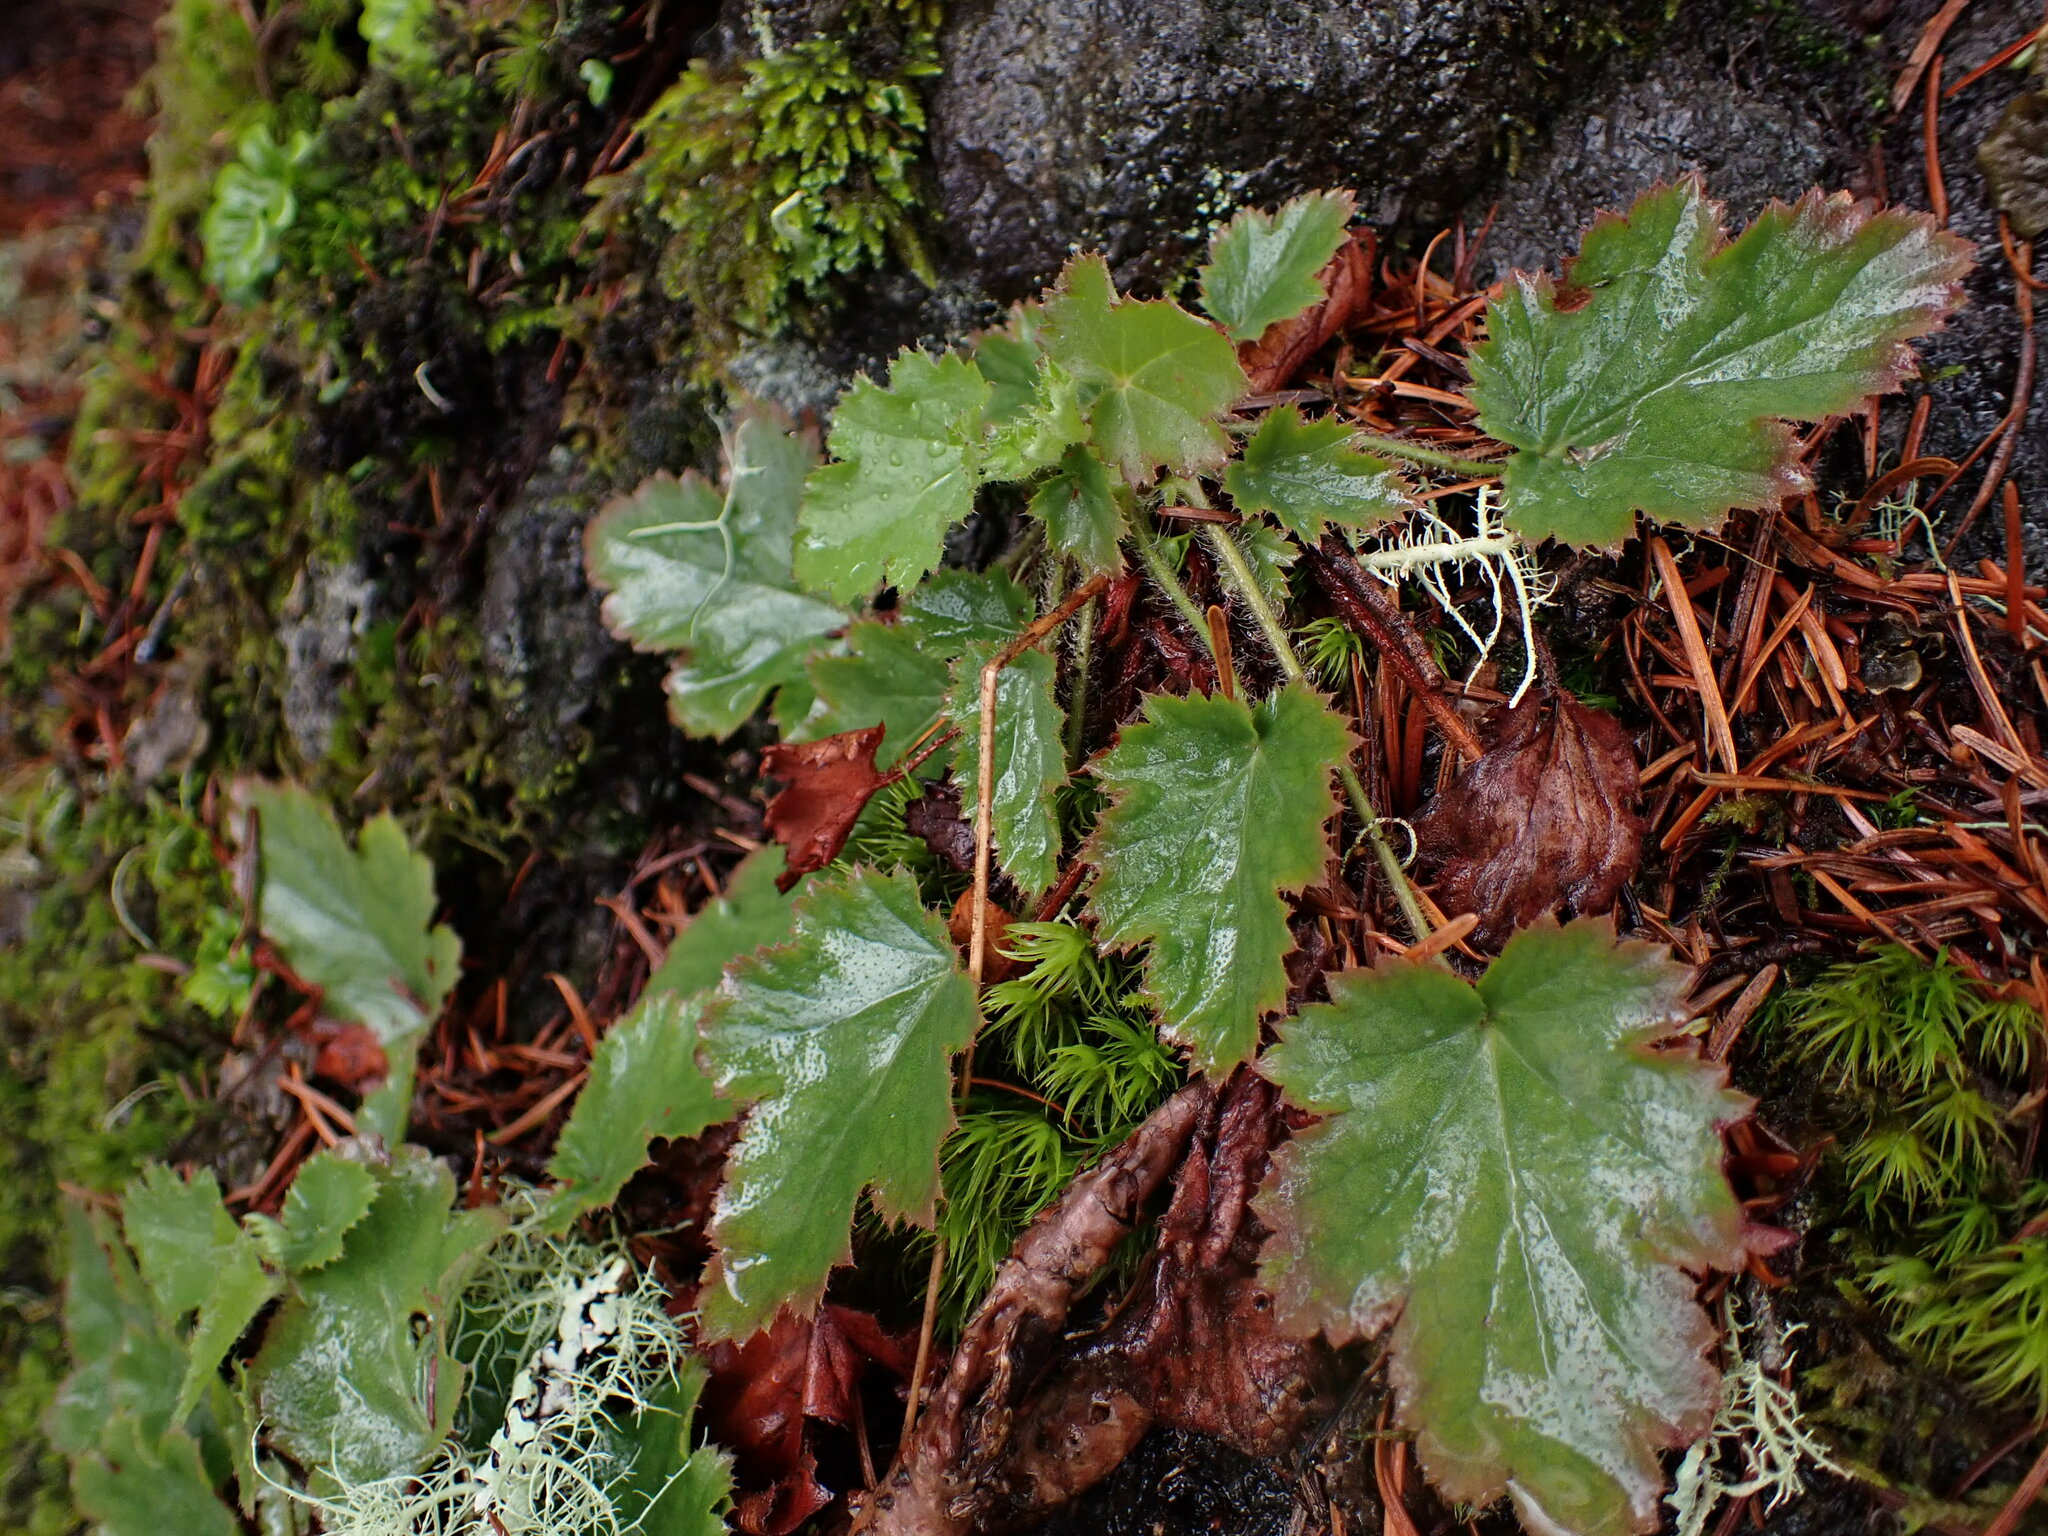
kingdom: Plantae
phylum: Tracheophyta
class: Magnoliopsida
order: Saxifragales
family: Saxifragaceae
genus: Heuchera
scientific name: Heuchera micrantha
